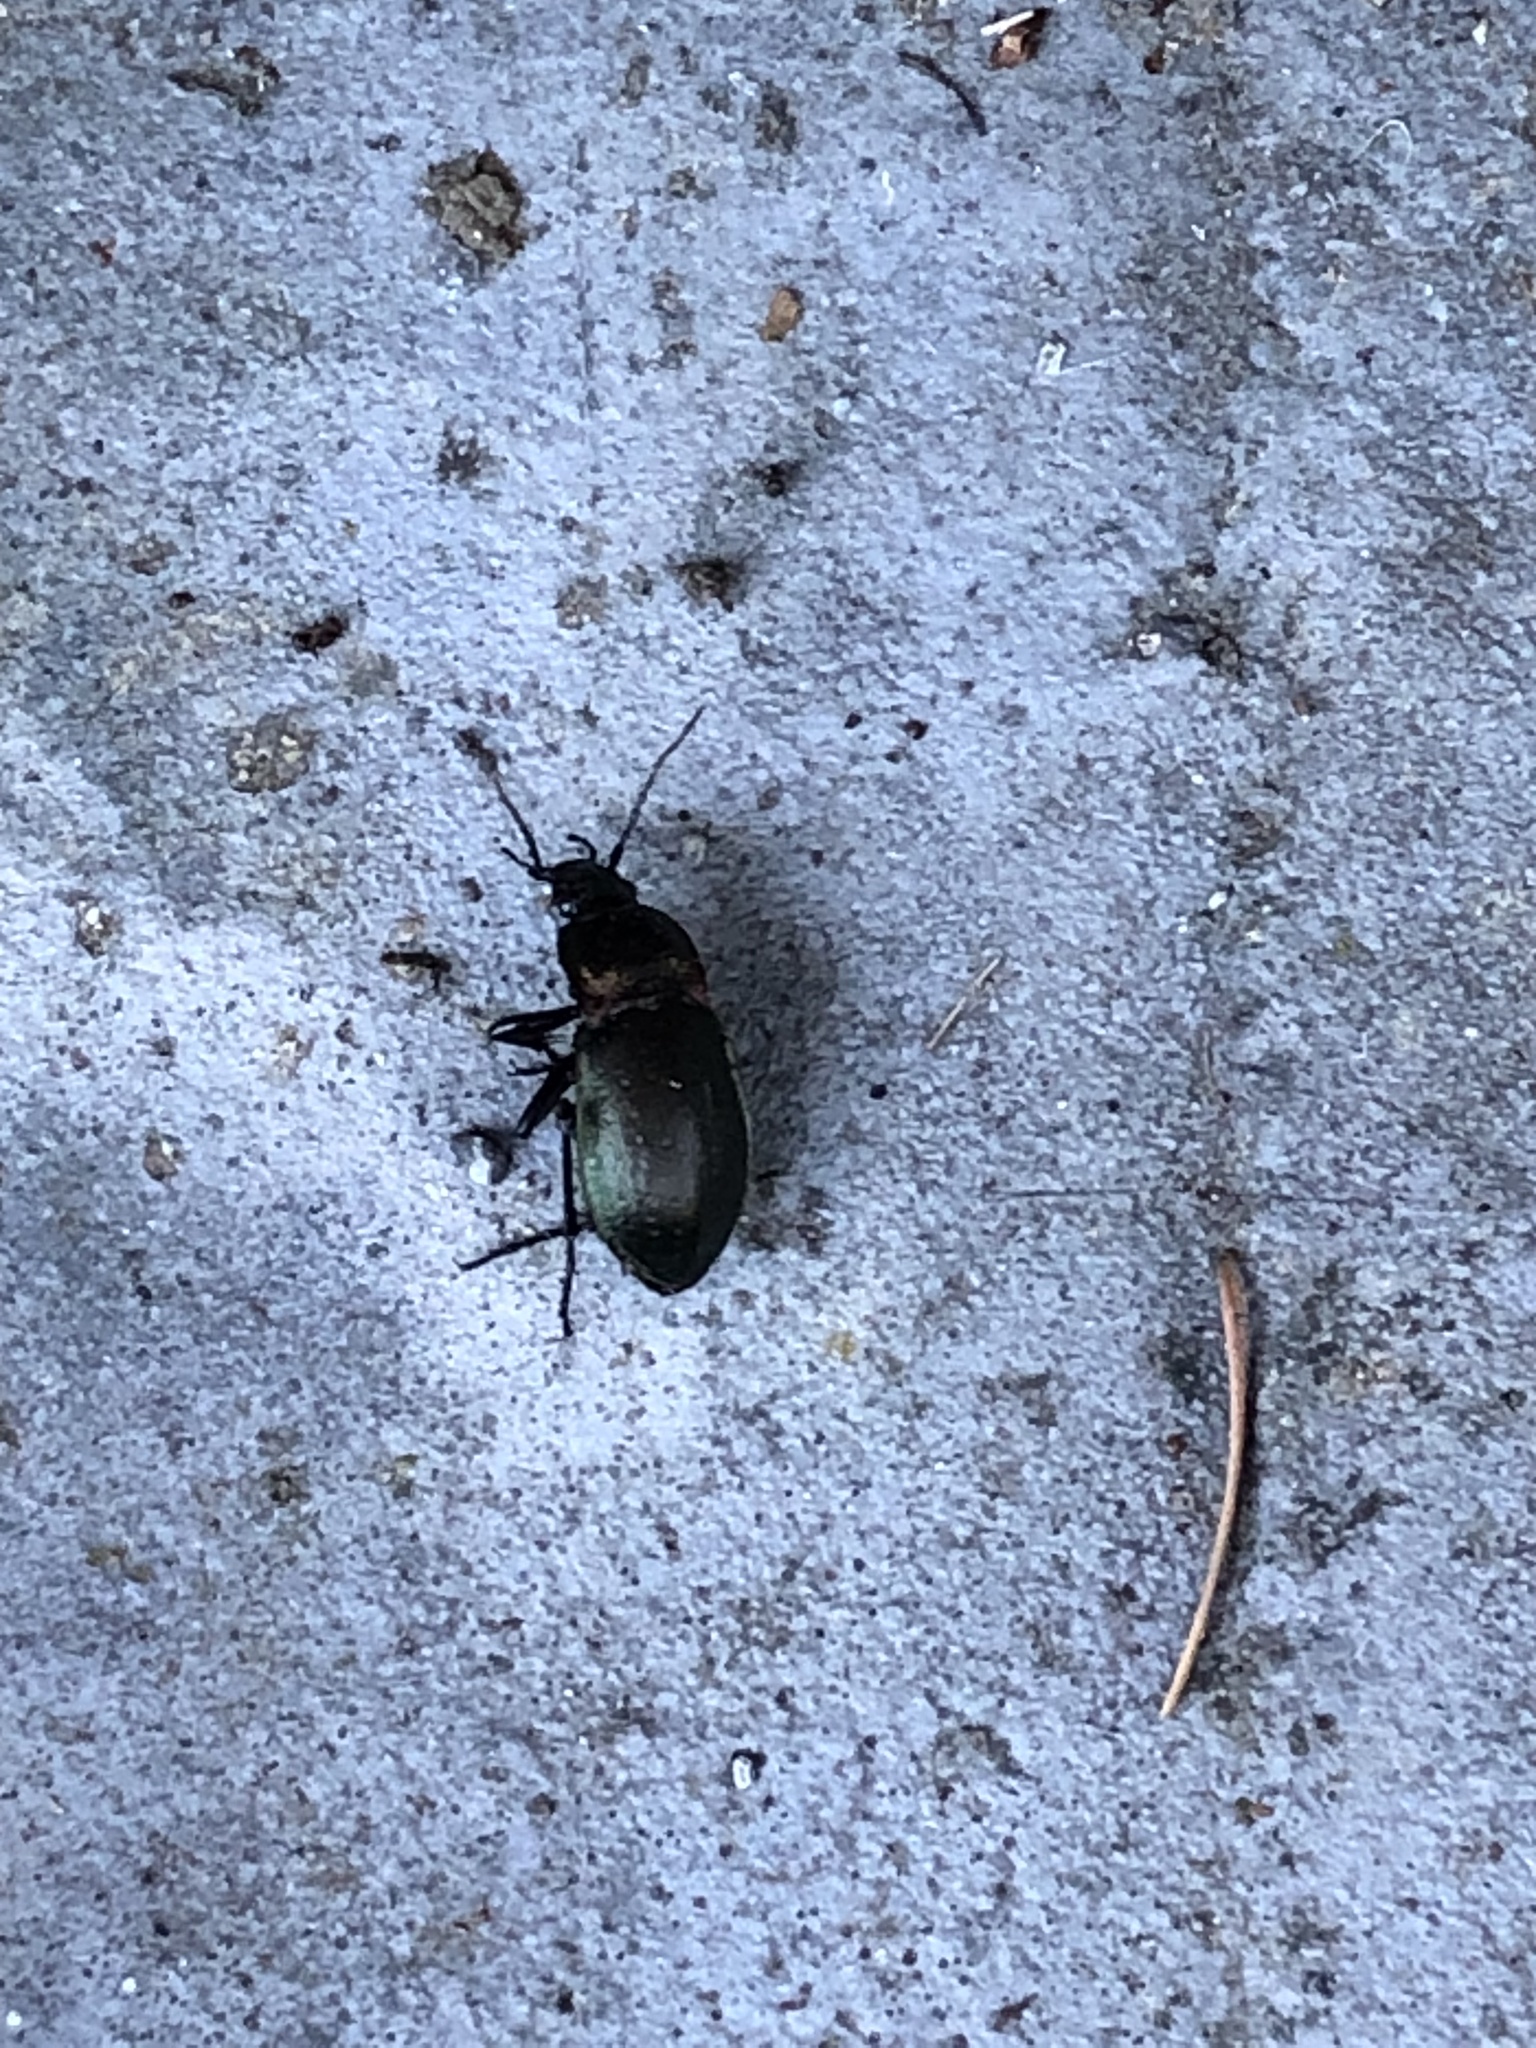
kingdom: Animalia
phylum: Arthropoda
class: Insecta
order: Coleoptera
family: Carabidae
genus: Carabus
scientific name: Carabus nemoralis
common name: European ground beetle
